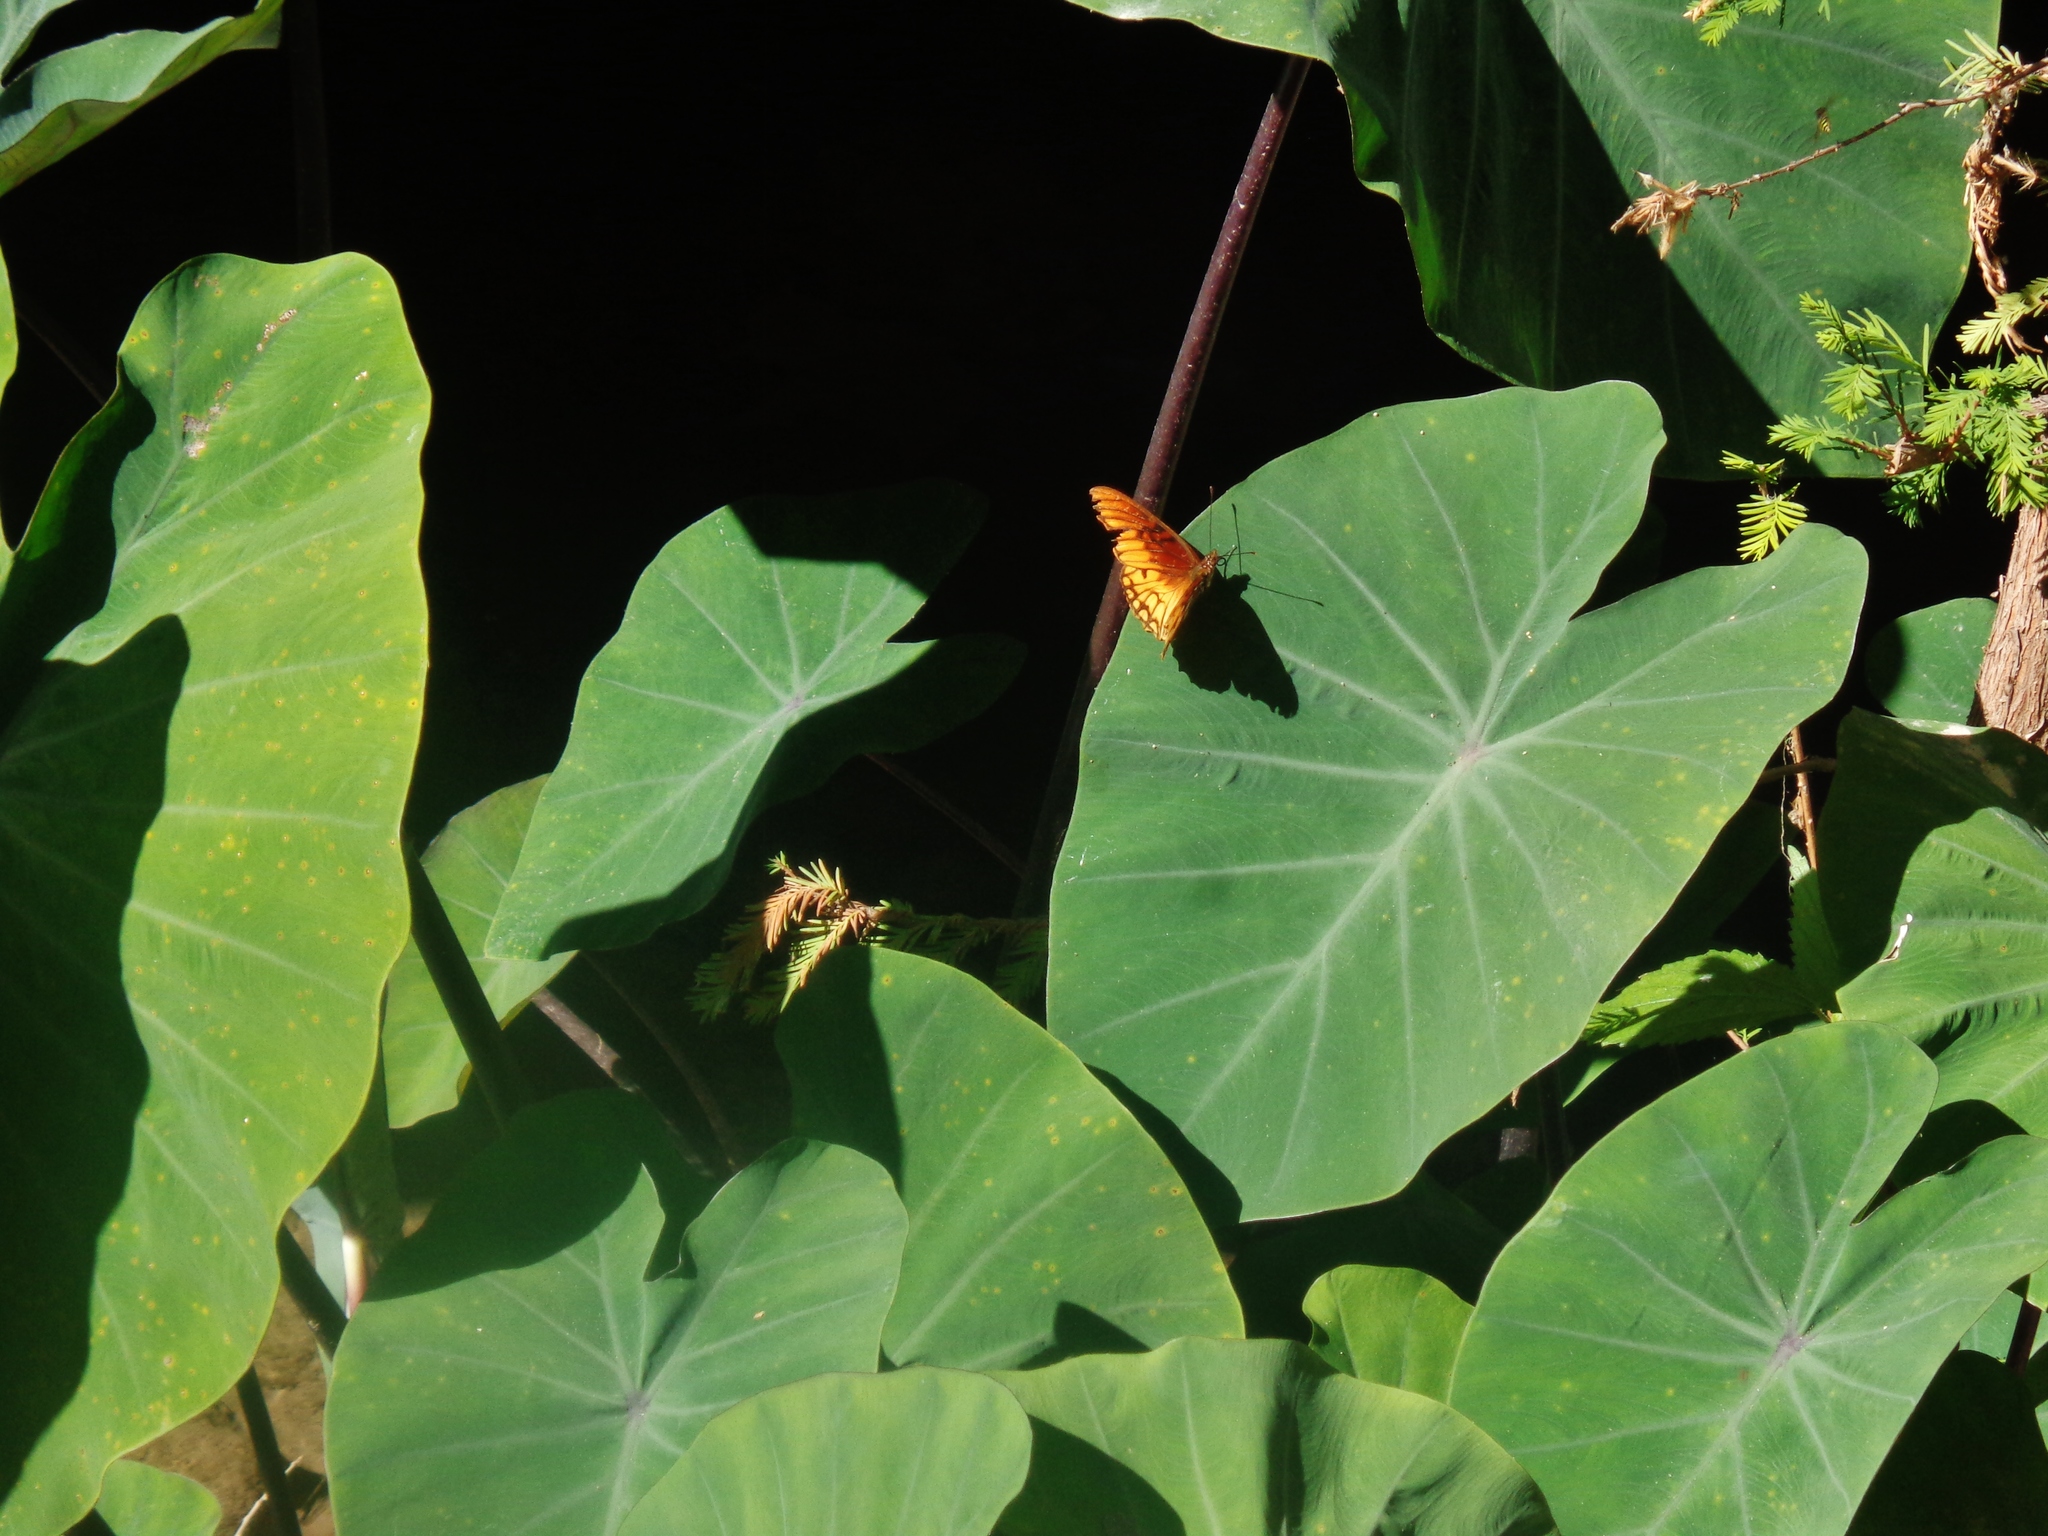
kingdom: Animalia
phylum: Arthropoda
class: Insecta
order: Lepidoptera
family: Nymphalidae
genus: Dione
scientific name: Dione moneta
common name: Mexican silverspot
